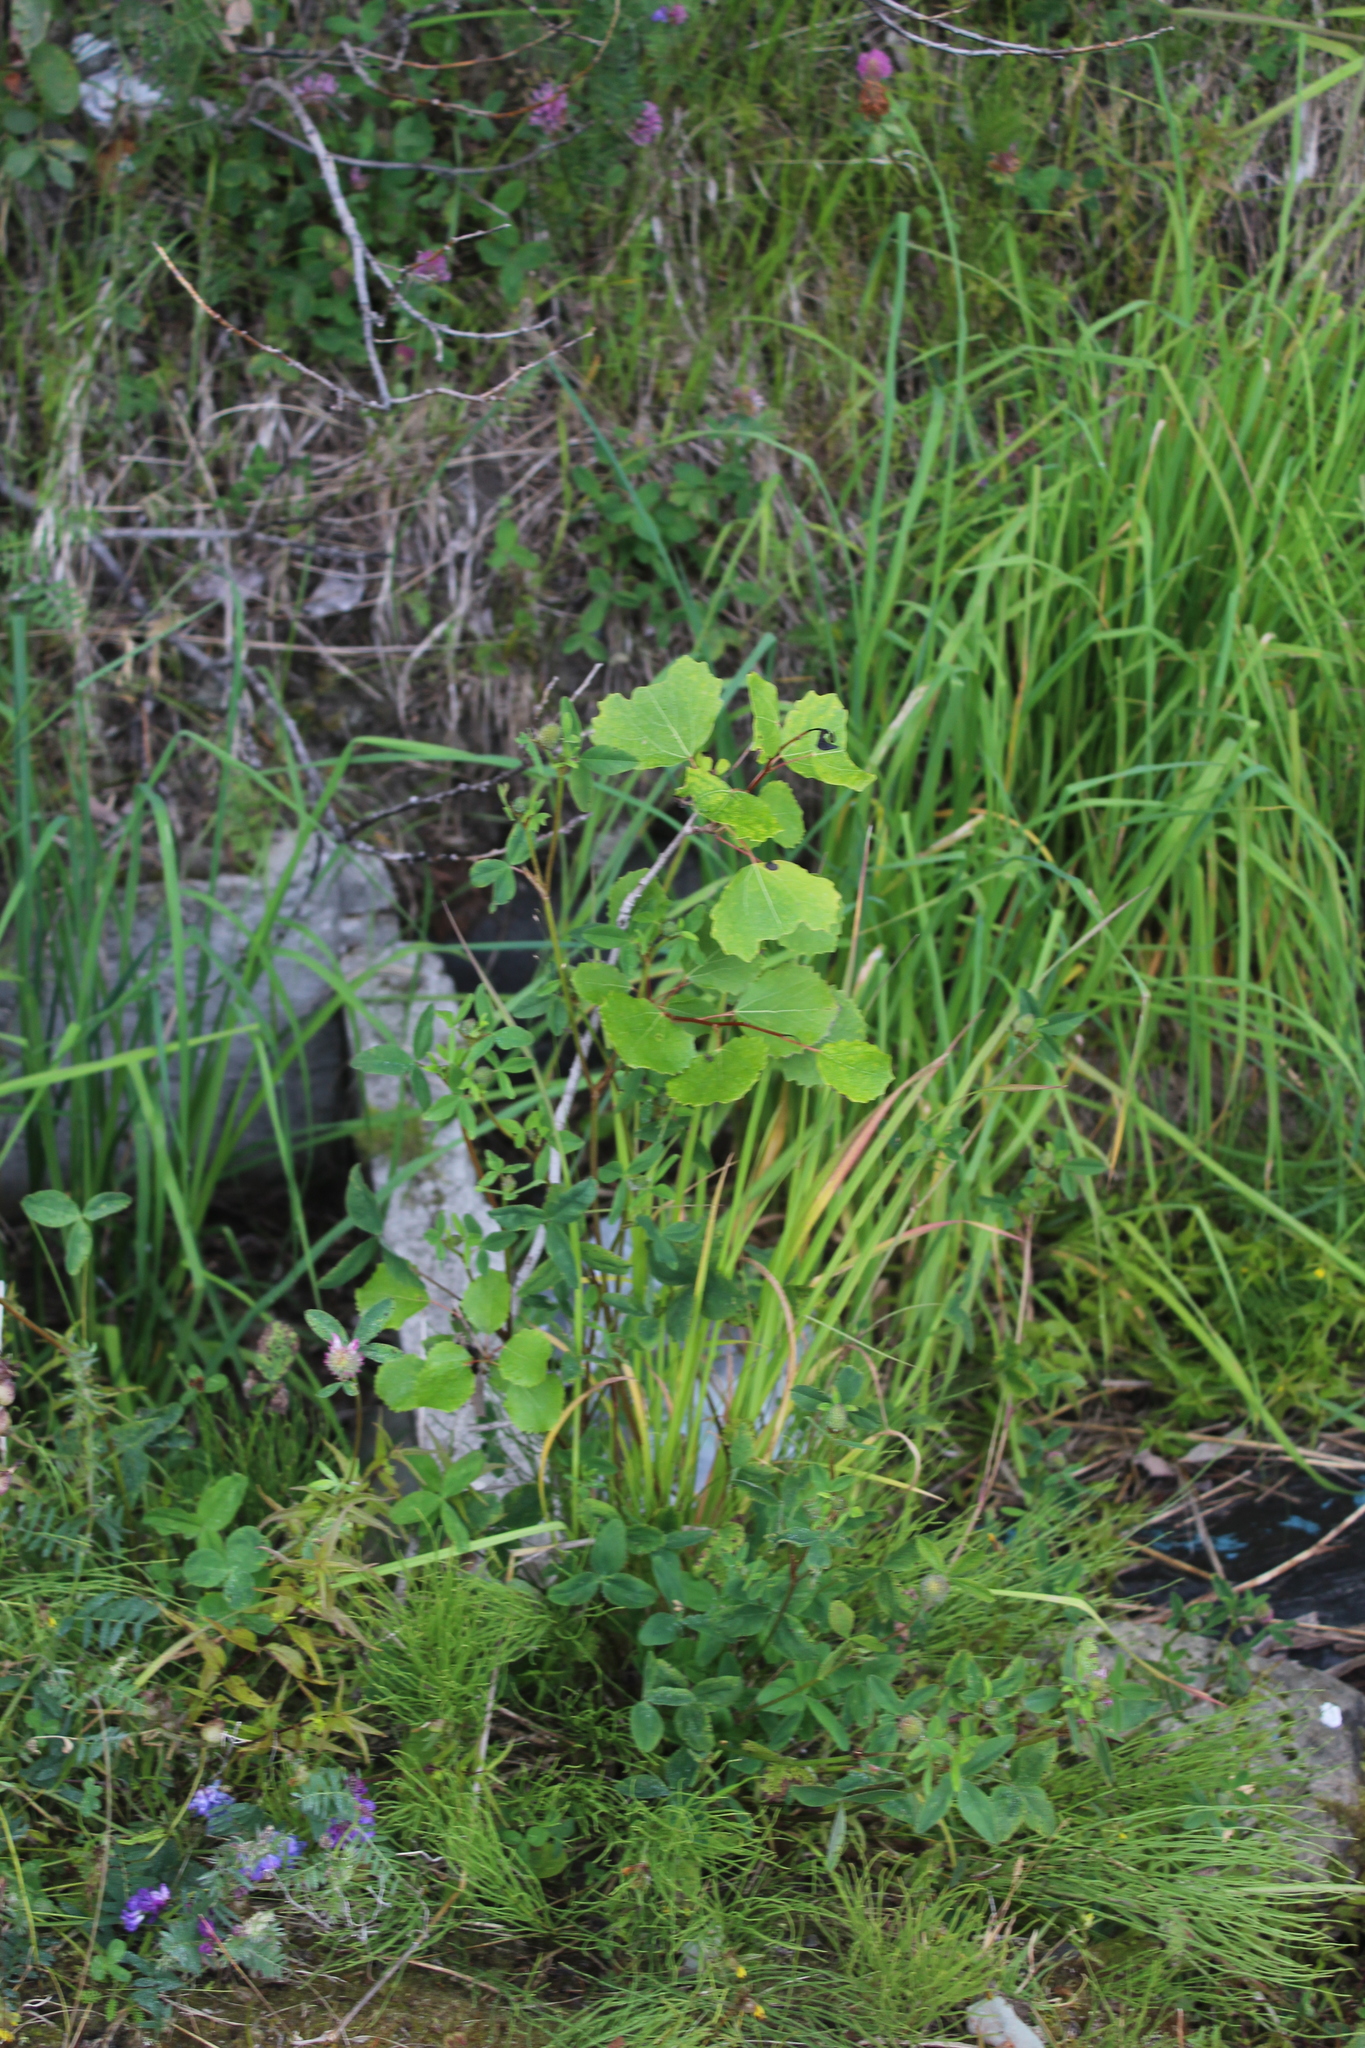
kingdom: Plantae
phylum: Tracheophyta
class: Magnoliopsida
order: Malpighiales
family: Salicaceae
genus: Populus
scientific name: Populus tremula
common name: European aspen
